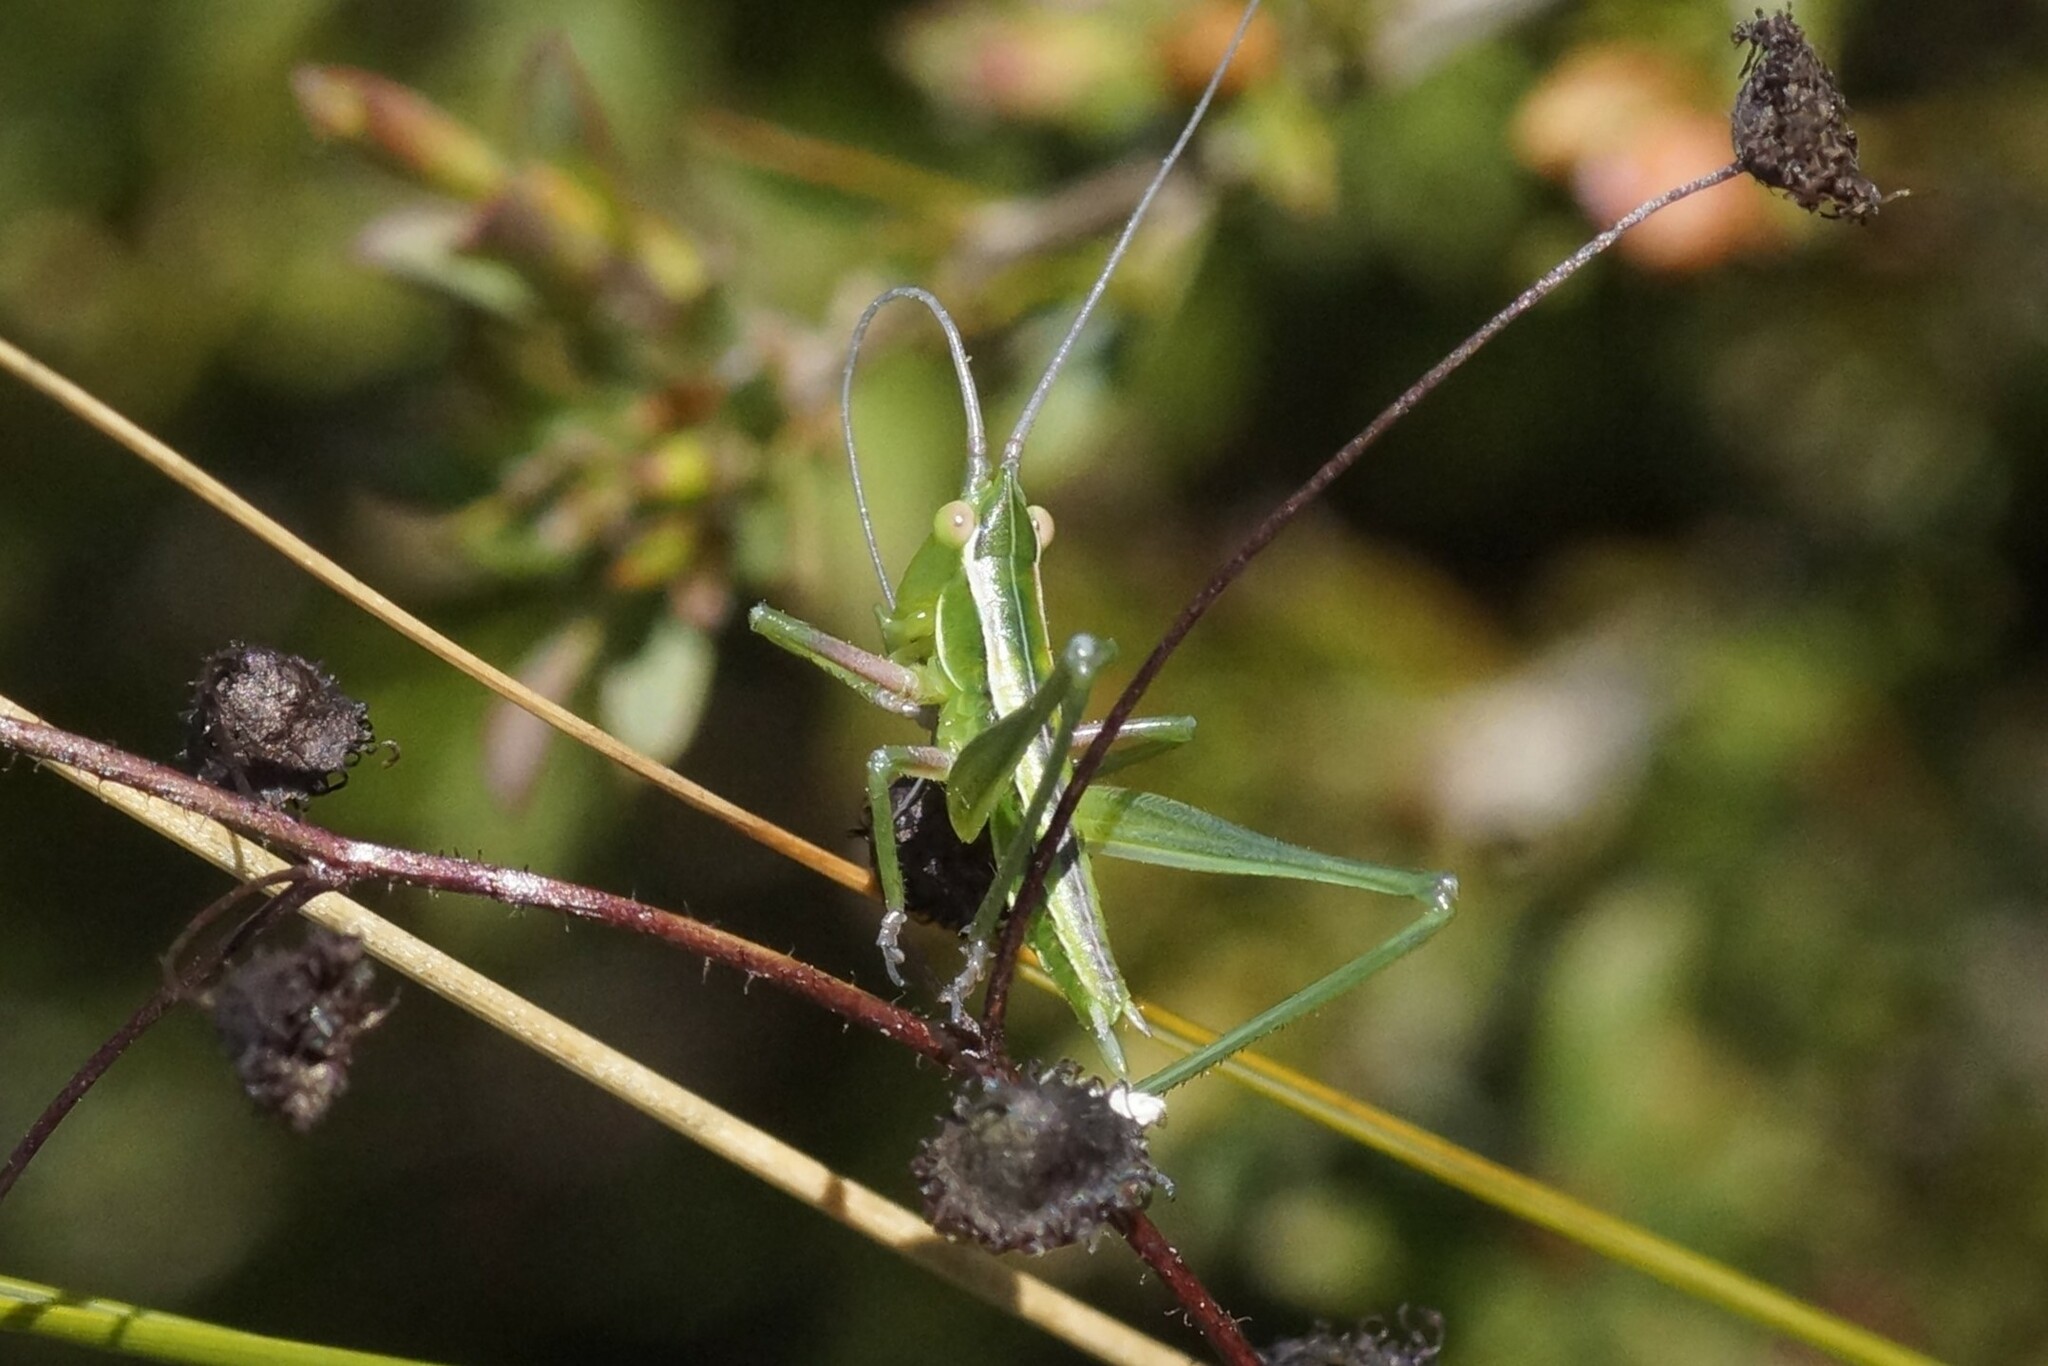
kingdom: Animalia
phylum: Arthropoda
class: Insecta
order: Orthoptera
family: Tettigoniidae
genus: Metaballus
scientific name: Metaballus sagaeformis
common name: Adelaide marauding katydid
